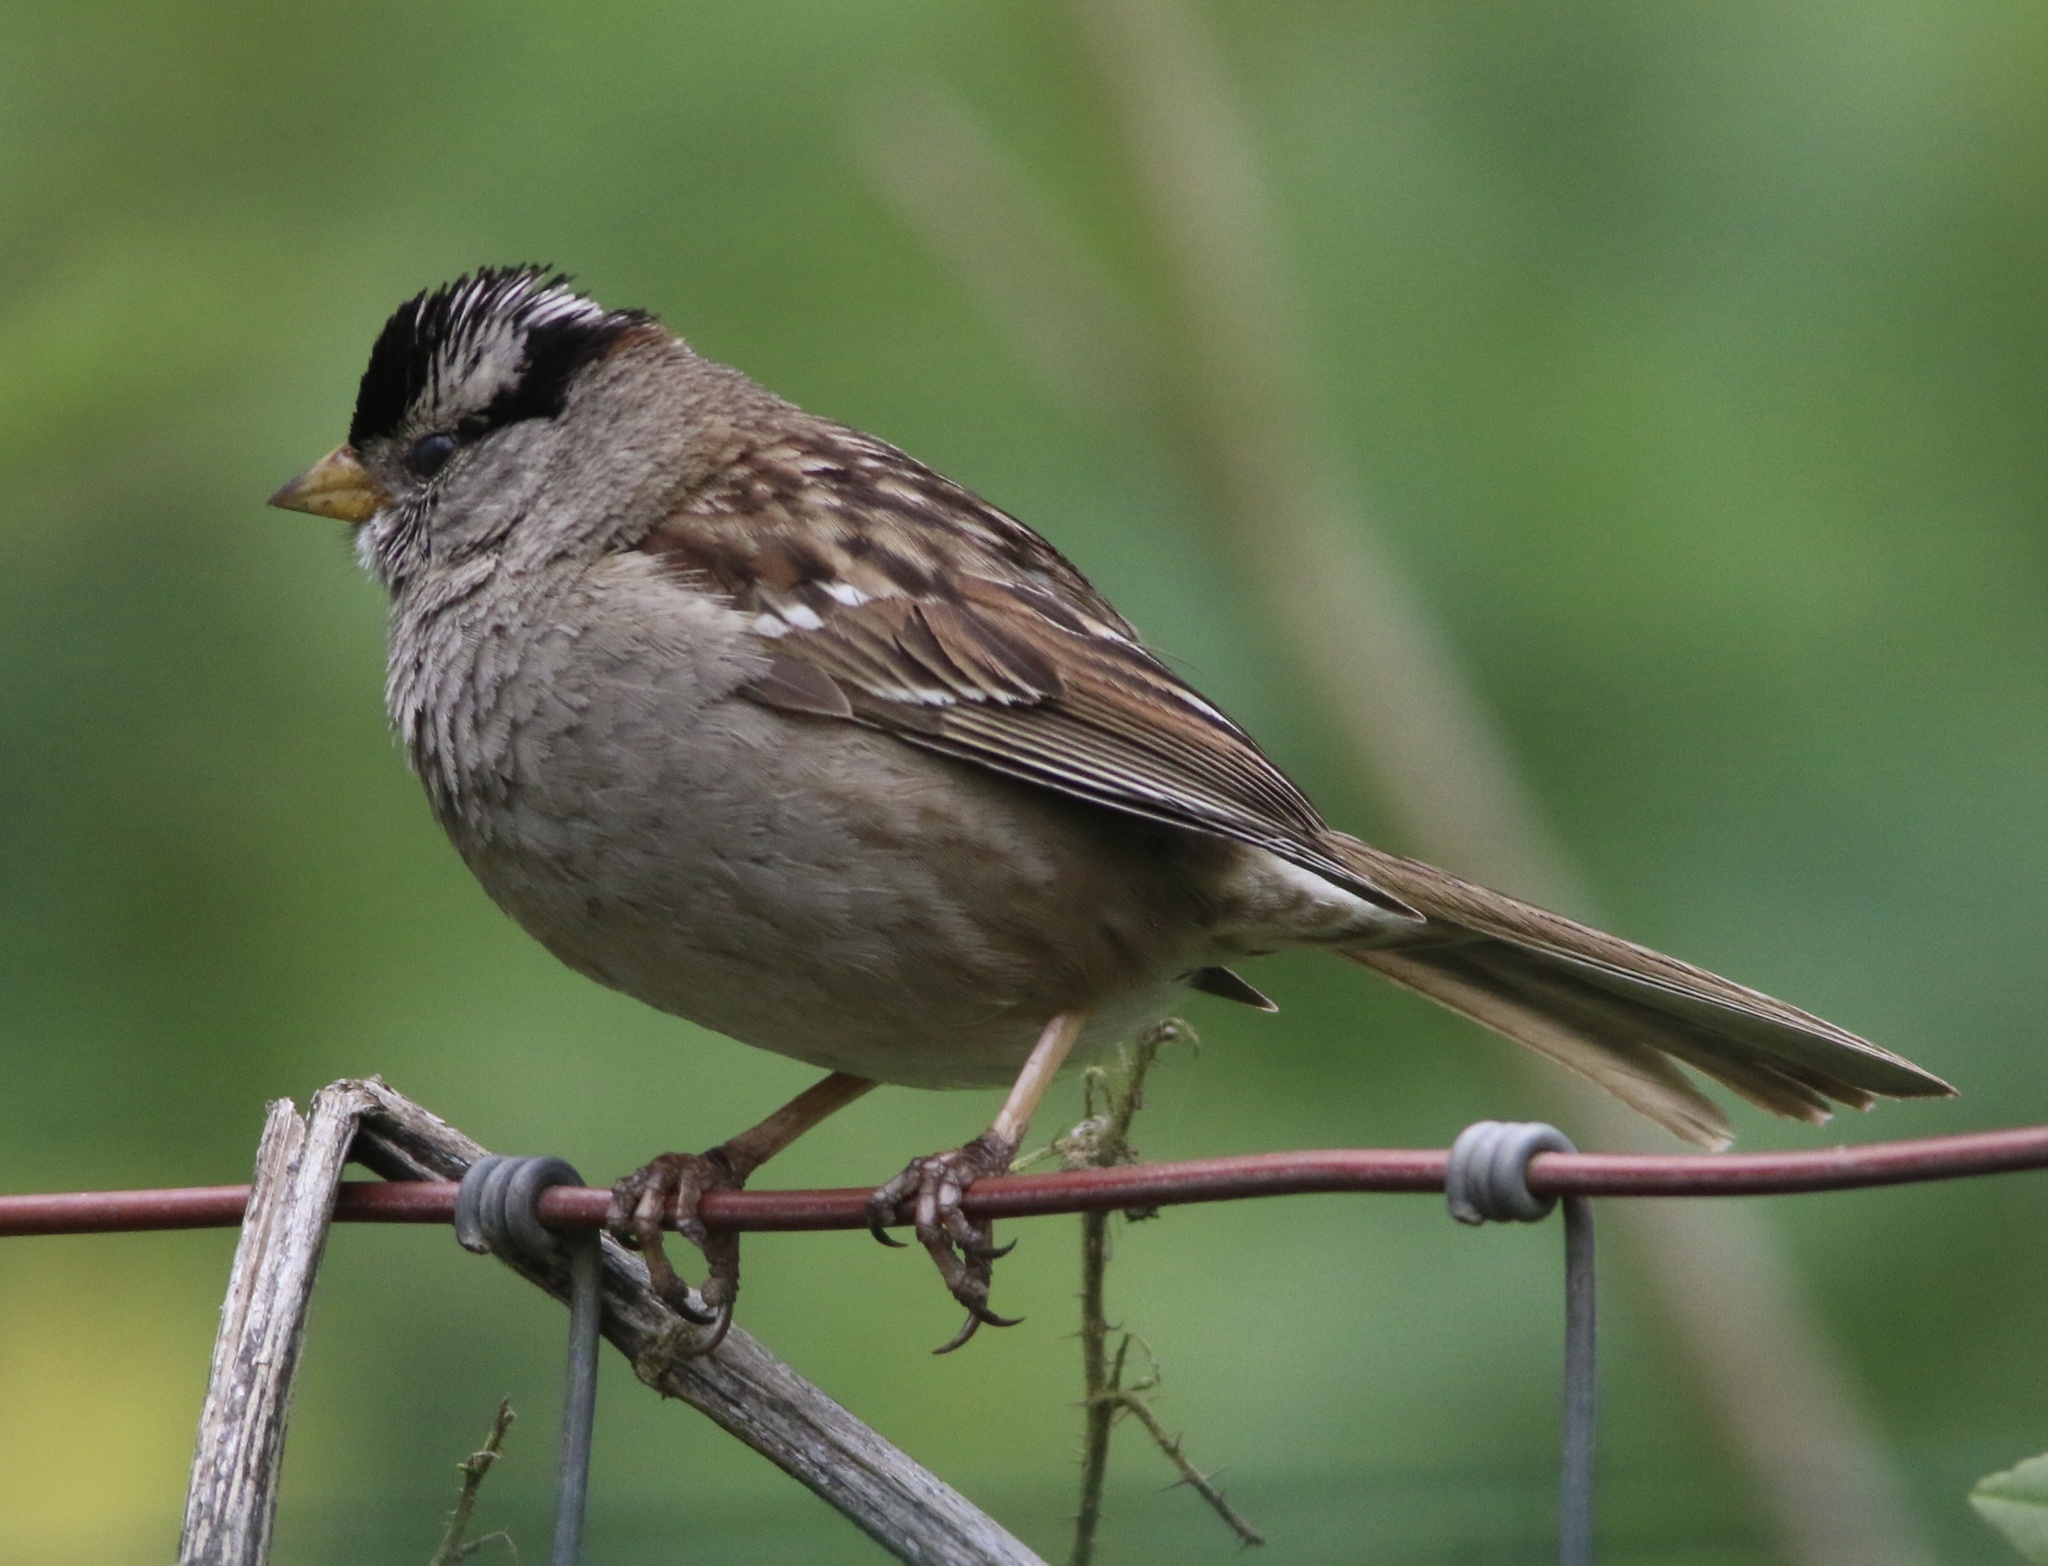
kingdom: Animalia
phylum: Chordata
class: Aves
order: Passeriformes
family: Passerellidae
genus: Zonotrichia
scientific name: Zonotrichia leucophrys
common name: White-crowned sparrow
